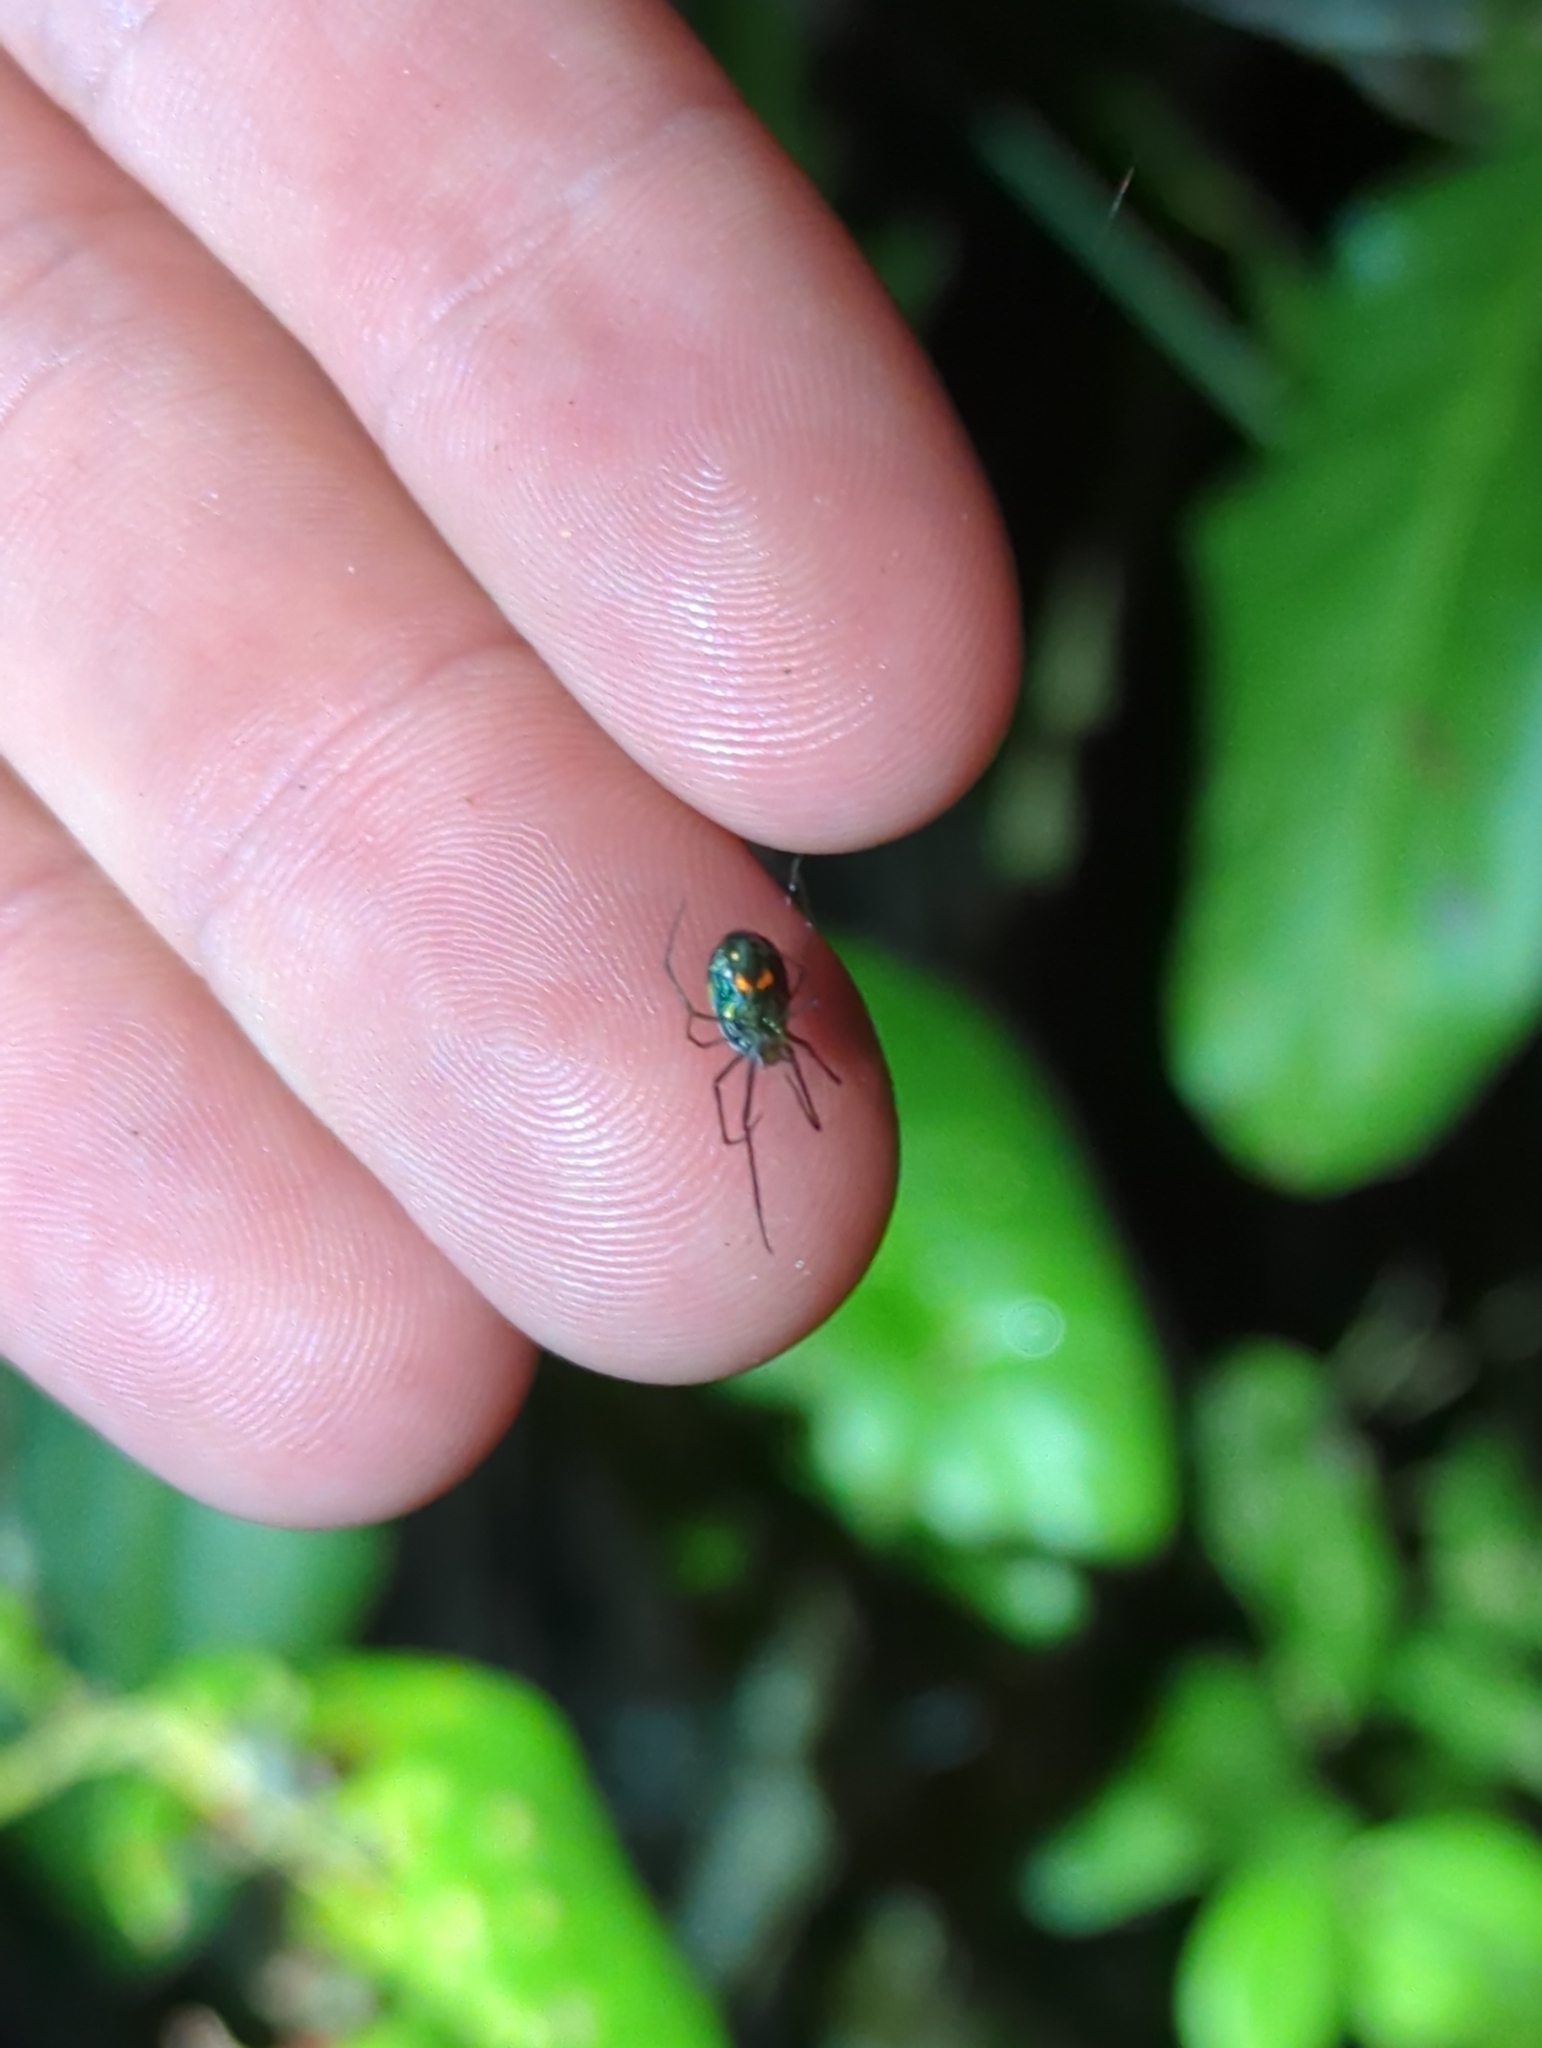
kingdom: Animalia
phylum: Arthropoda
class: Arachnida
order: Araneae
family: Tetragnathidae
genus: Leucauge
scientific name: Leucauge argyrobapta
